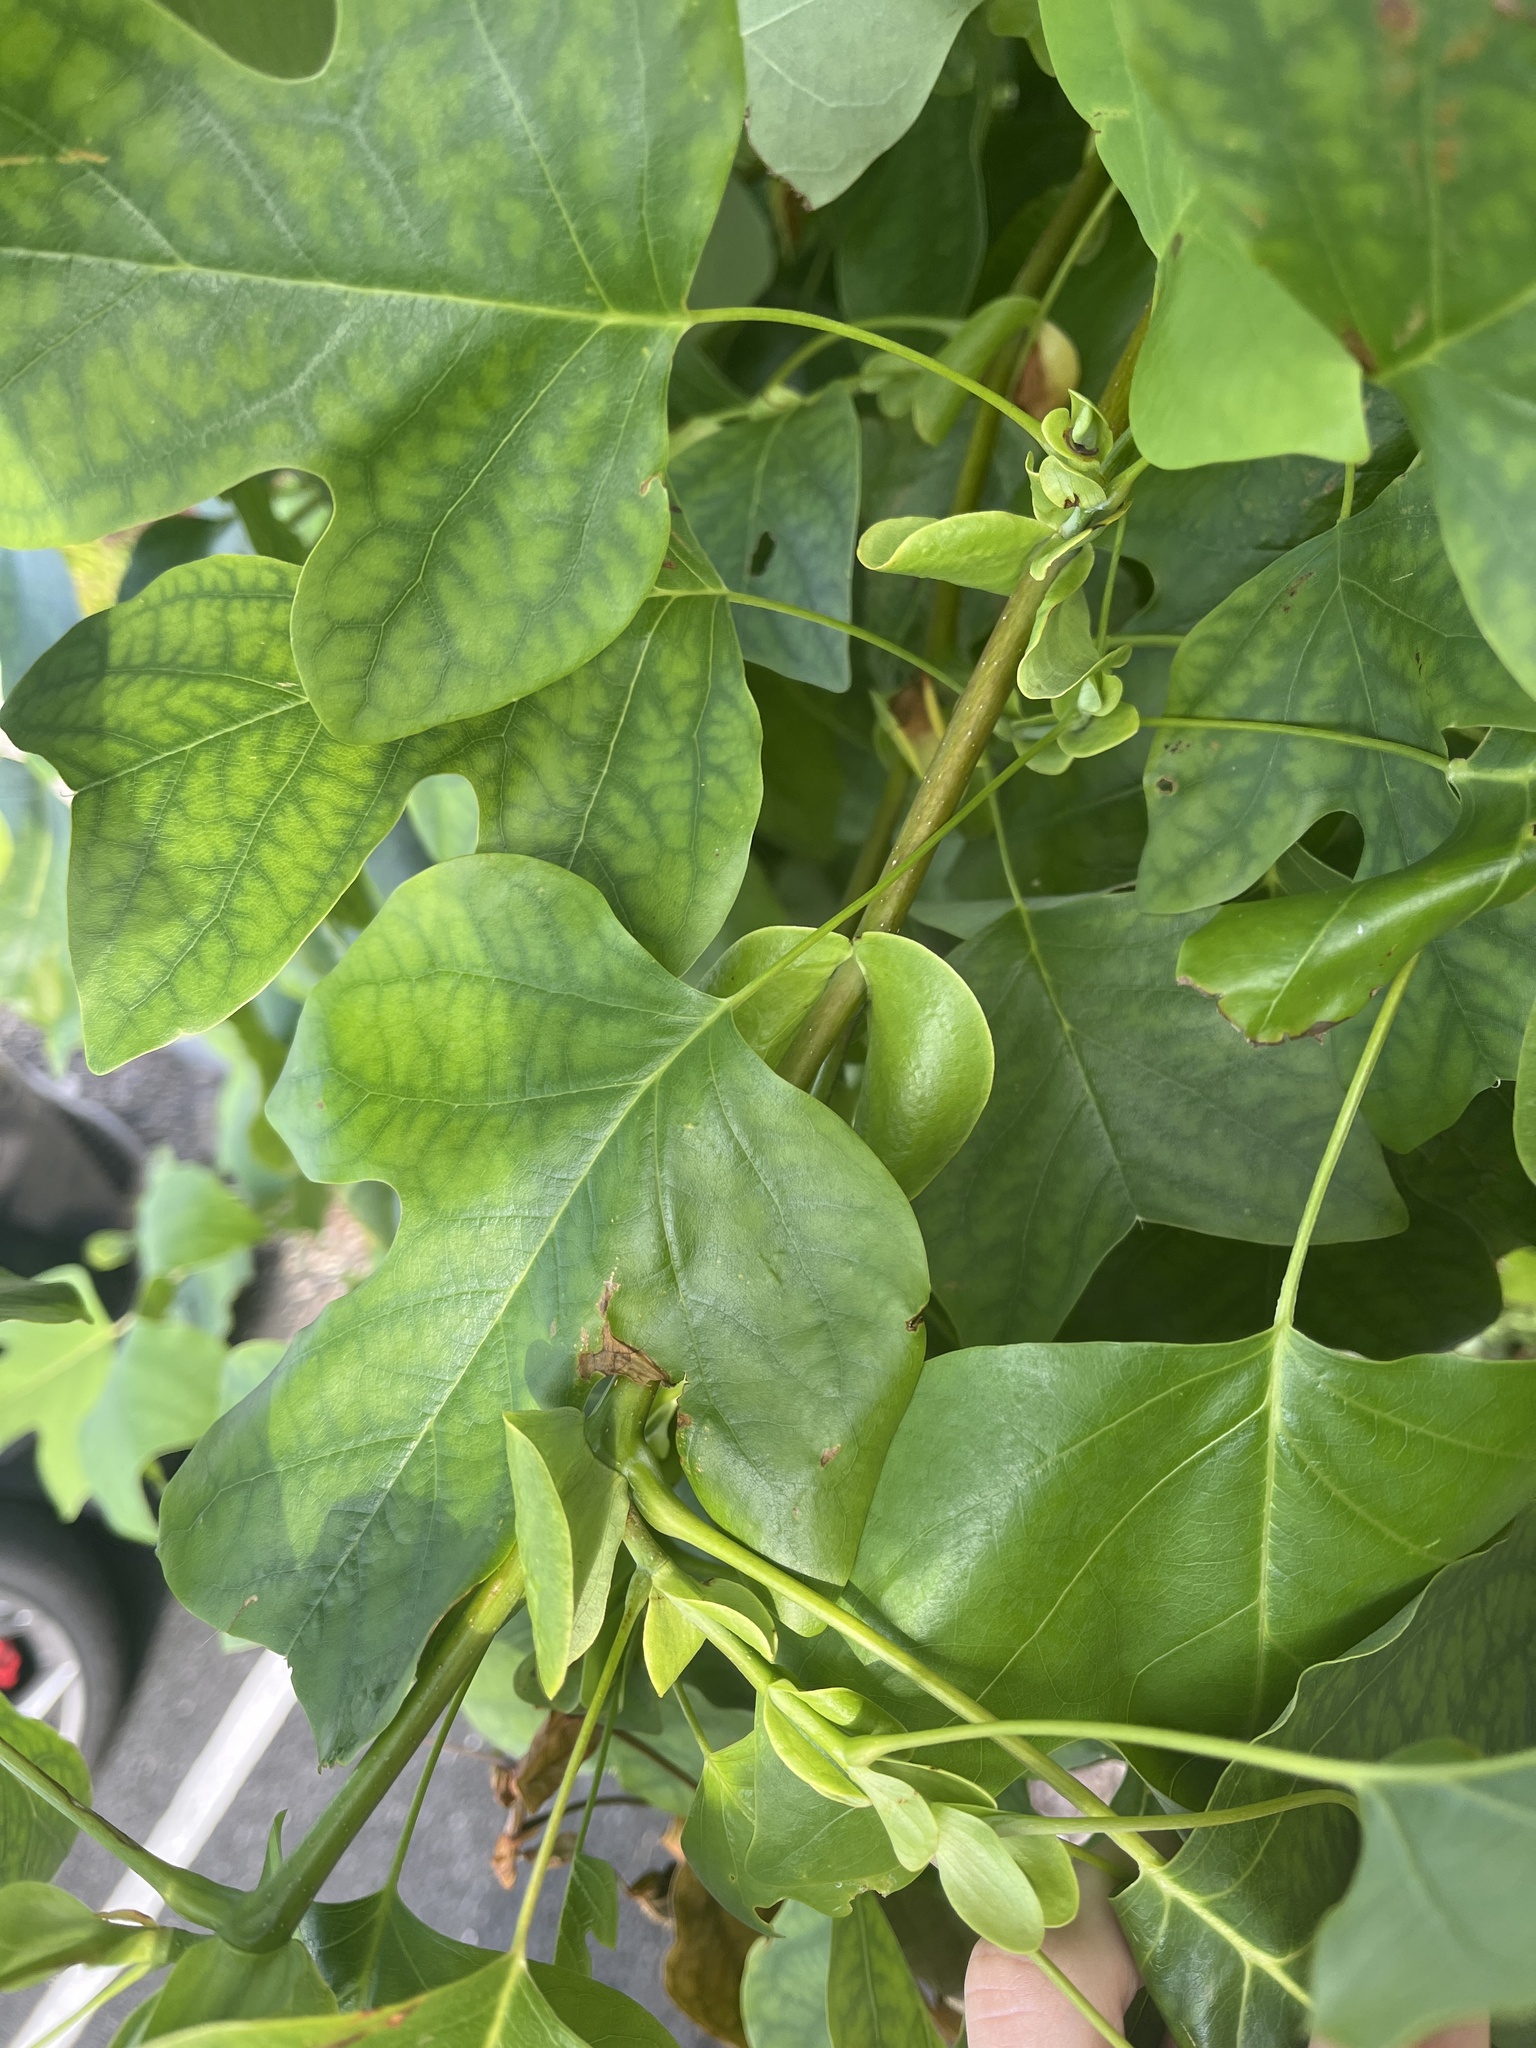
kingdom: Plantae
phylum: Tracheophyta
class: Magnoliopsida
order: Magnoliales
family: Magnoliaceae
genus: Liriodendron
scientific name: Liriodendron tulipifera
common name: Tulip tree
